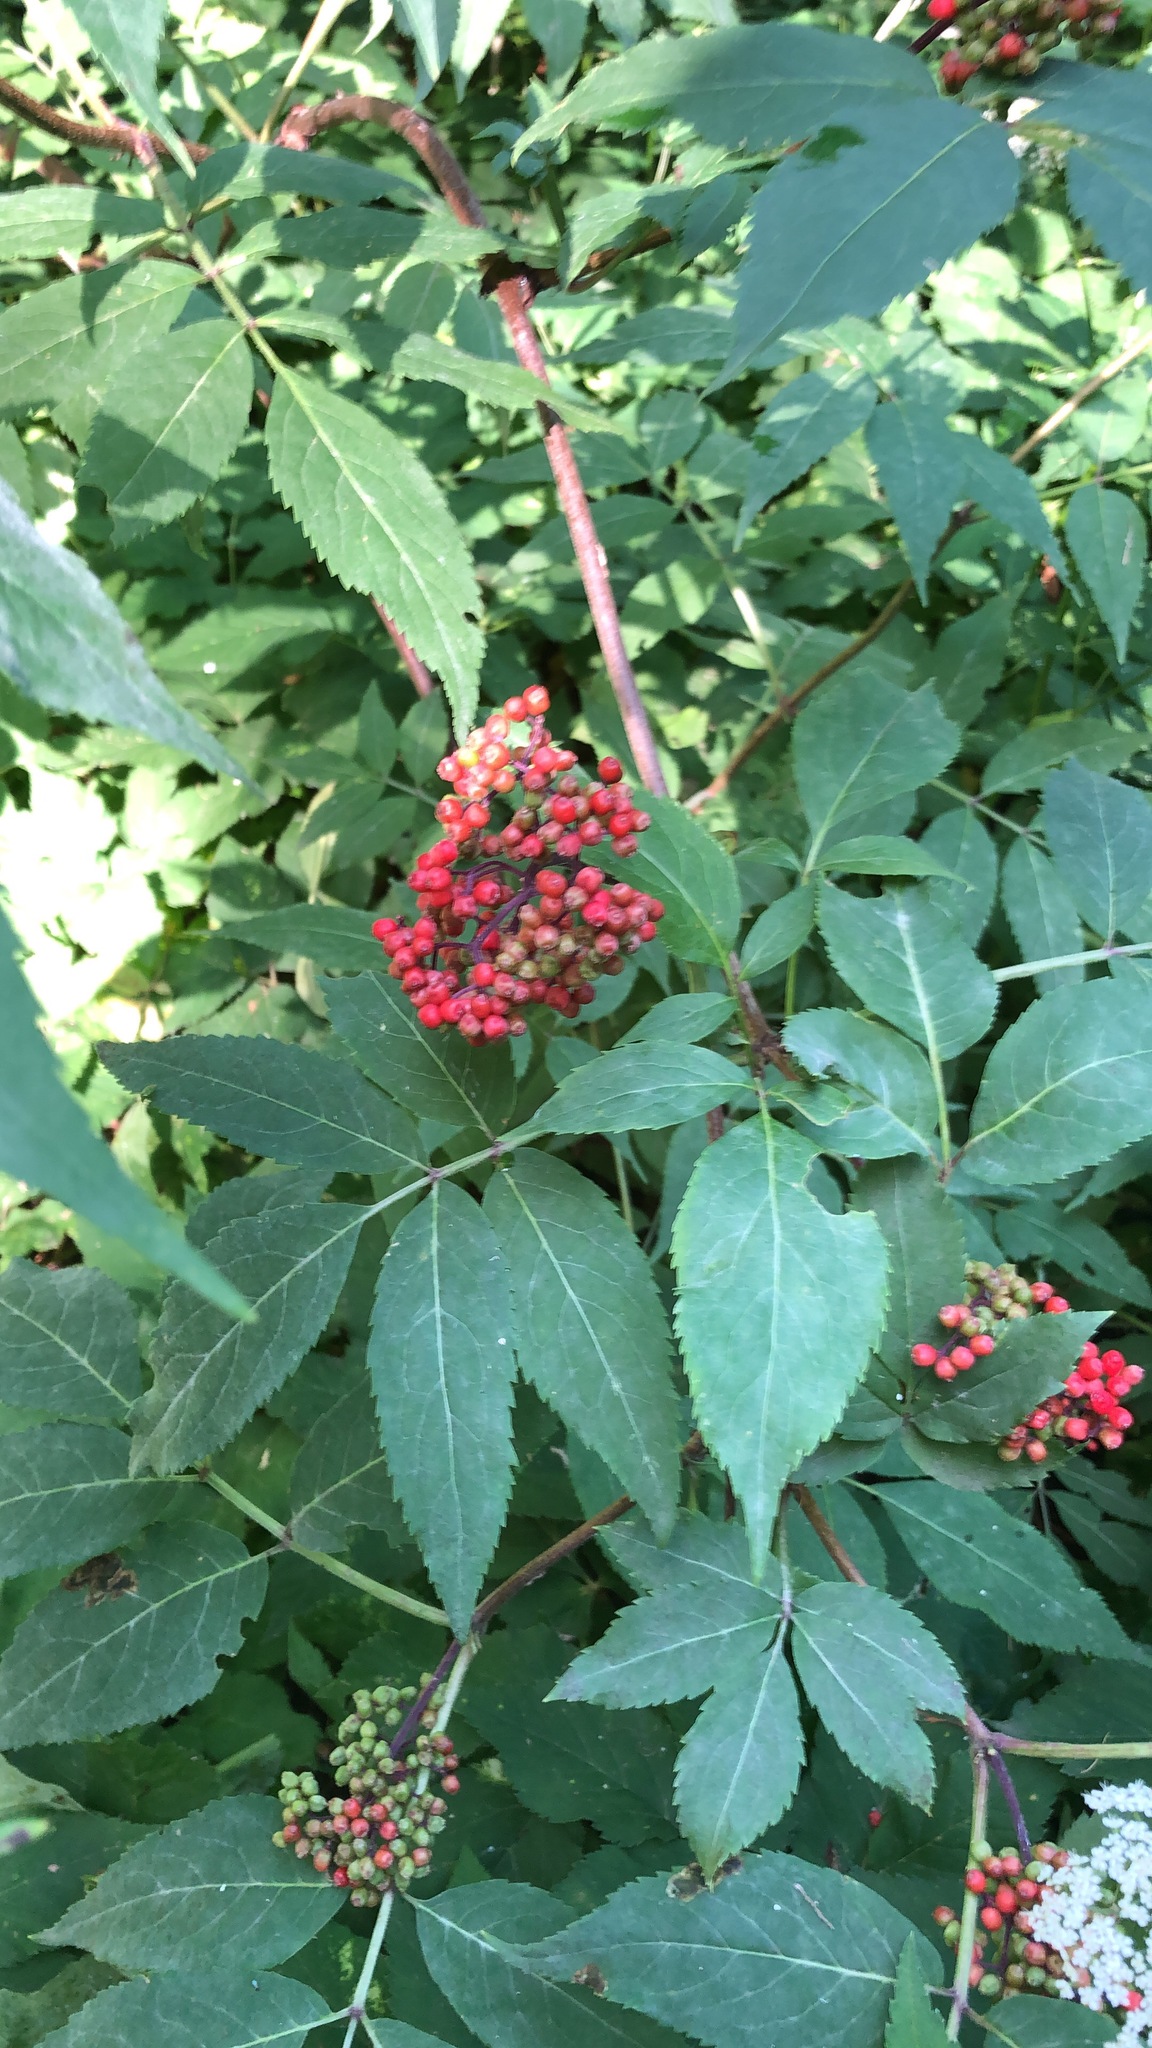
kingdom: Plantae
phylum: Tracheophyta
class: Magnoliopsida
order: Dipsacales
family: Viburnaceae
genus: Sambucus
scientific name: Sambucus racemosa
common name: Red-berried elder
